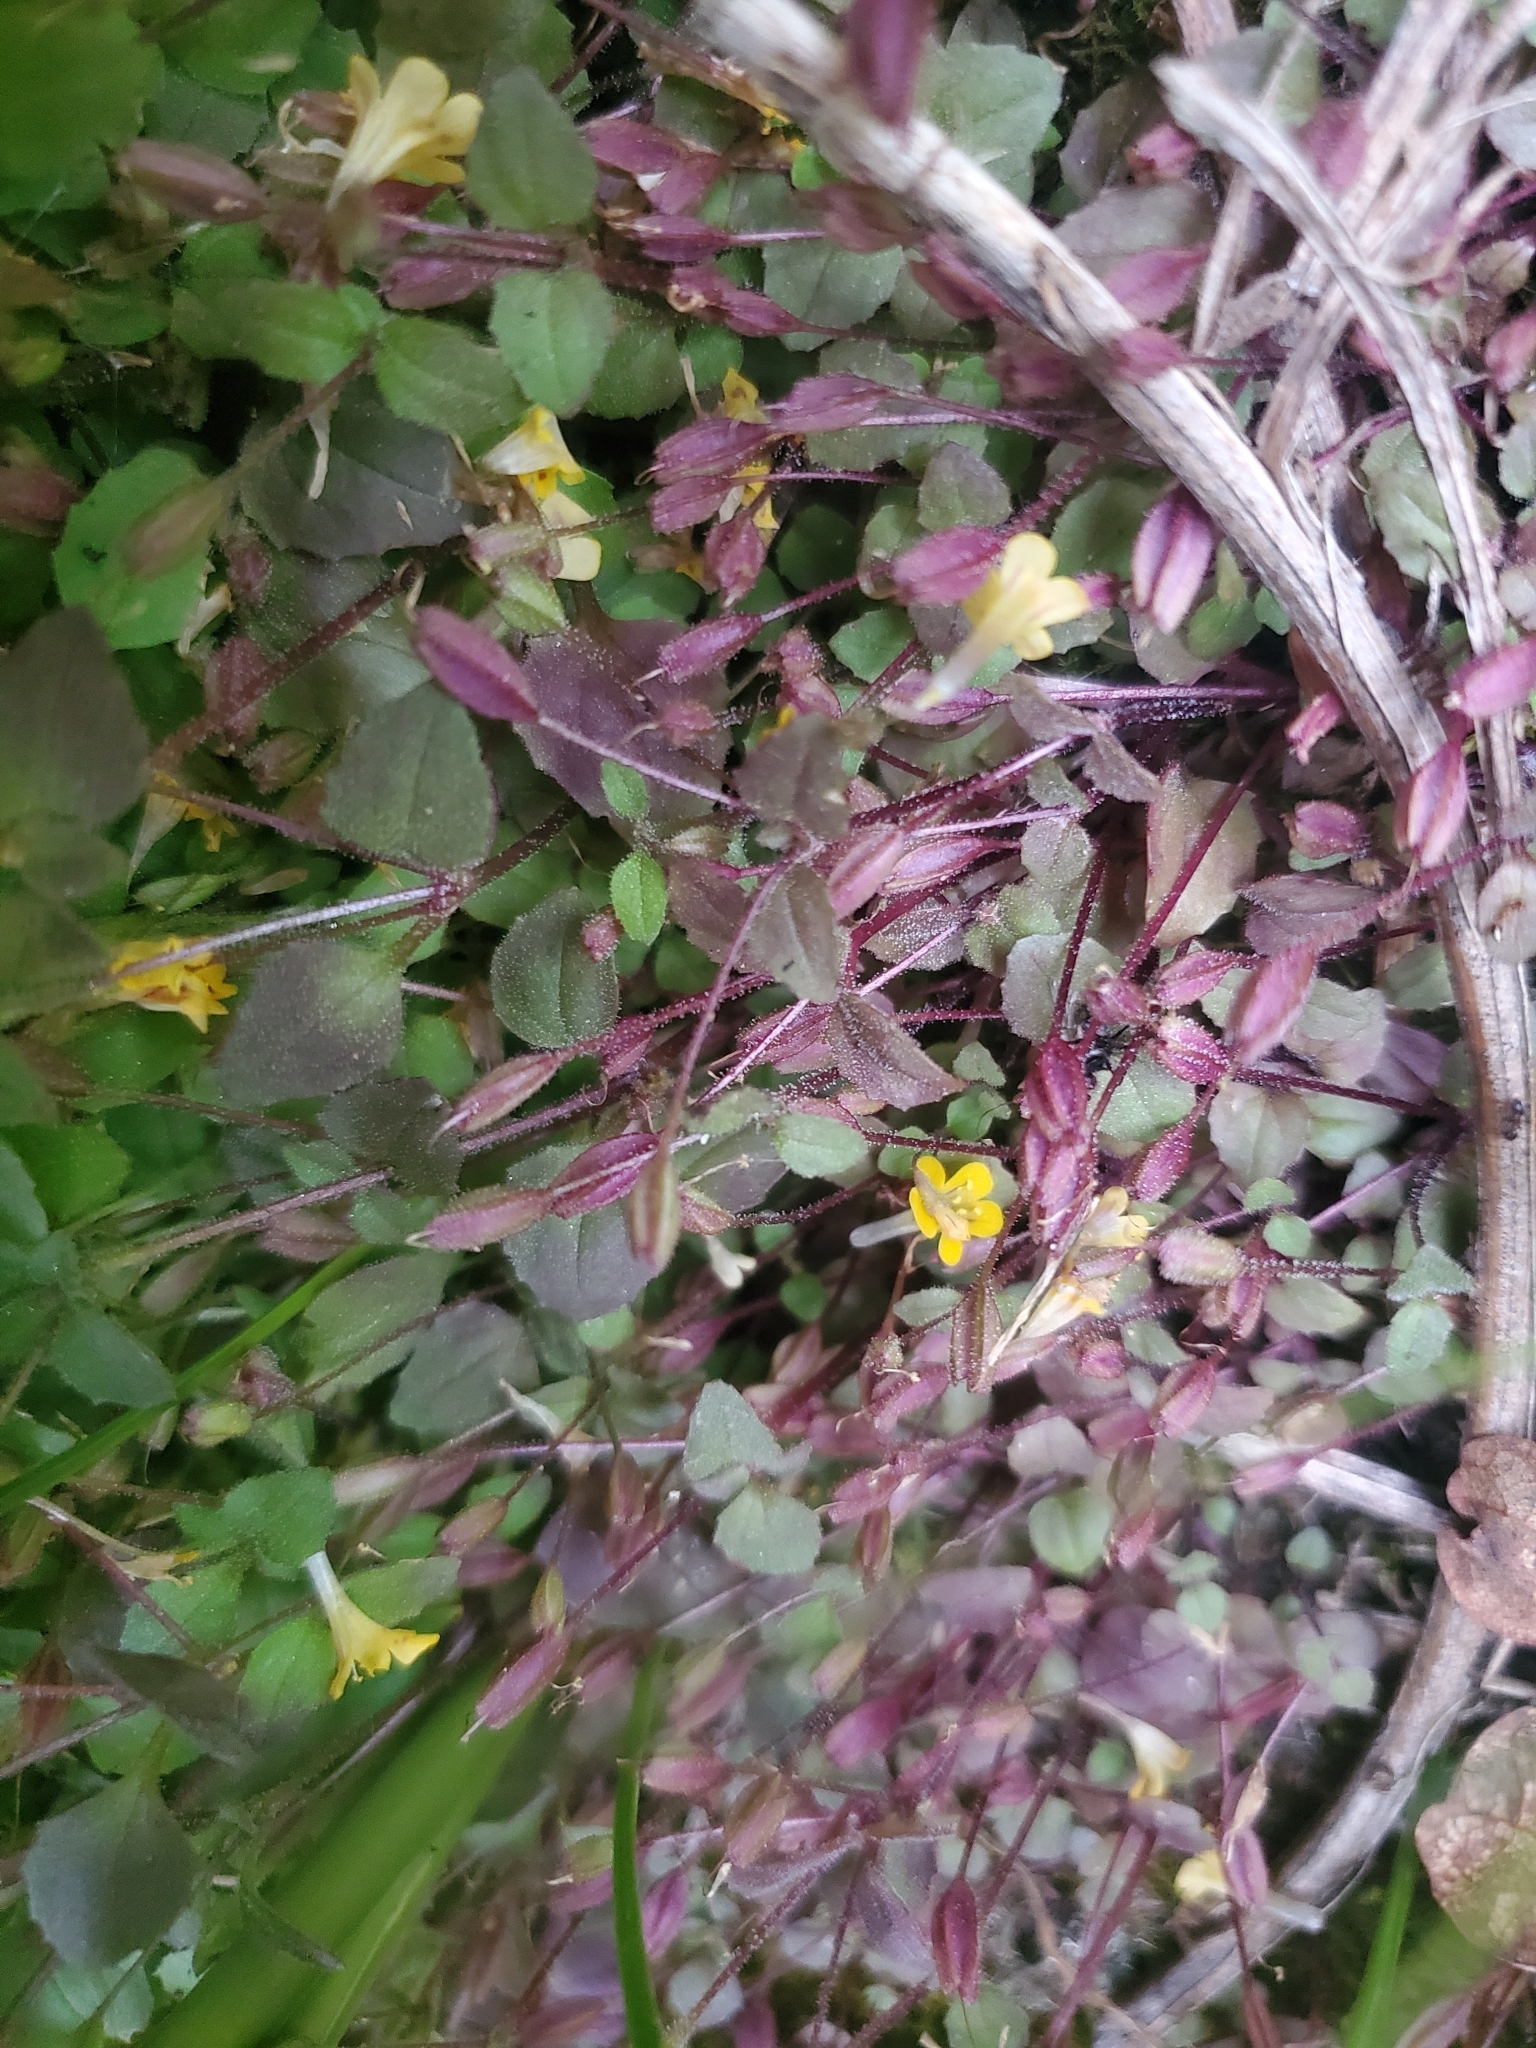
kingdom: Plantae
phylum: Tracheophyta
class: Magnoliopsida
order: Lamiales
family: Phrymaceae
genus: Erythranthe
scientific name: Erythranthe alsinoides
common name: Chickweed monkeyflower
